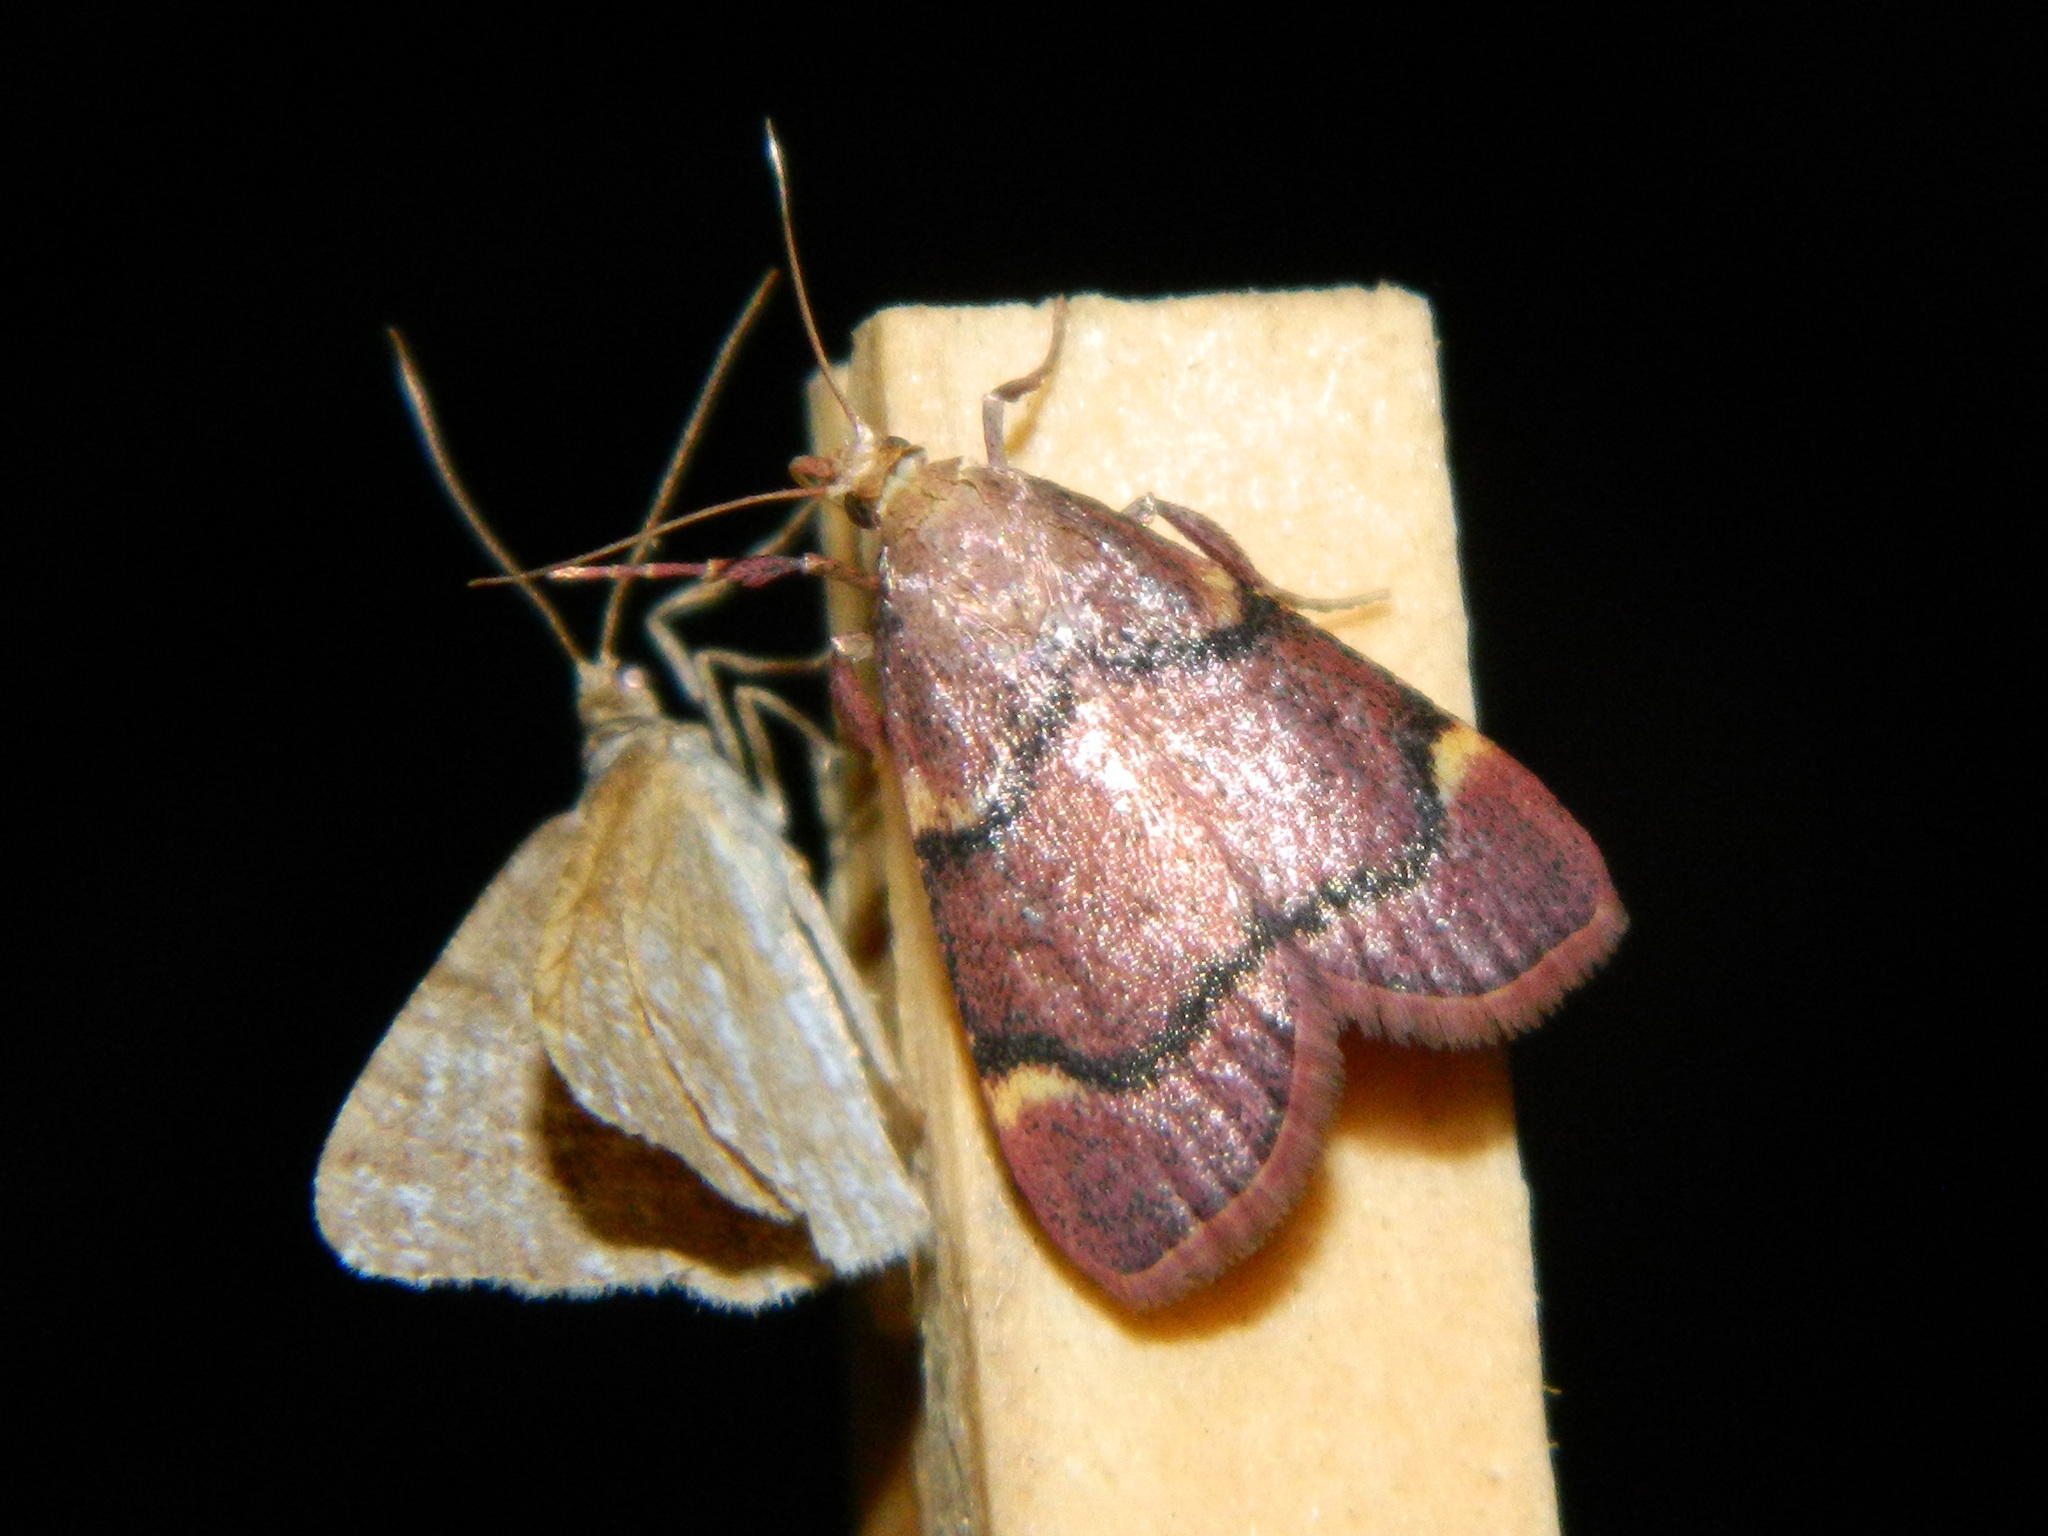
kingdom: Animalia
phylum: Arthropoda
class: Insecta
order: Lepidoptera
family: Pyralidae
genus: Hypsopygia
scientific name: Hypsopygia thymetusalis
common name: Spruce needleworm moth
